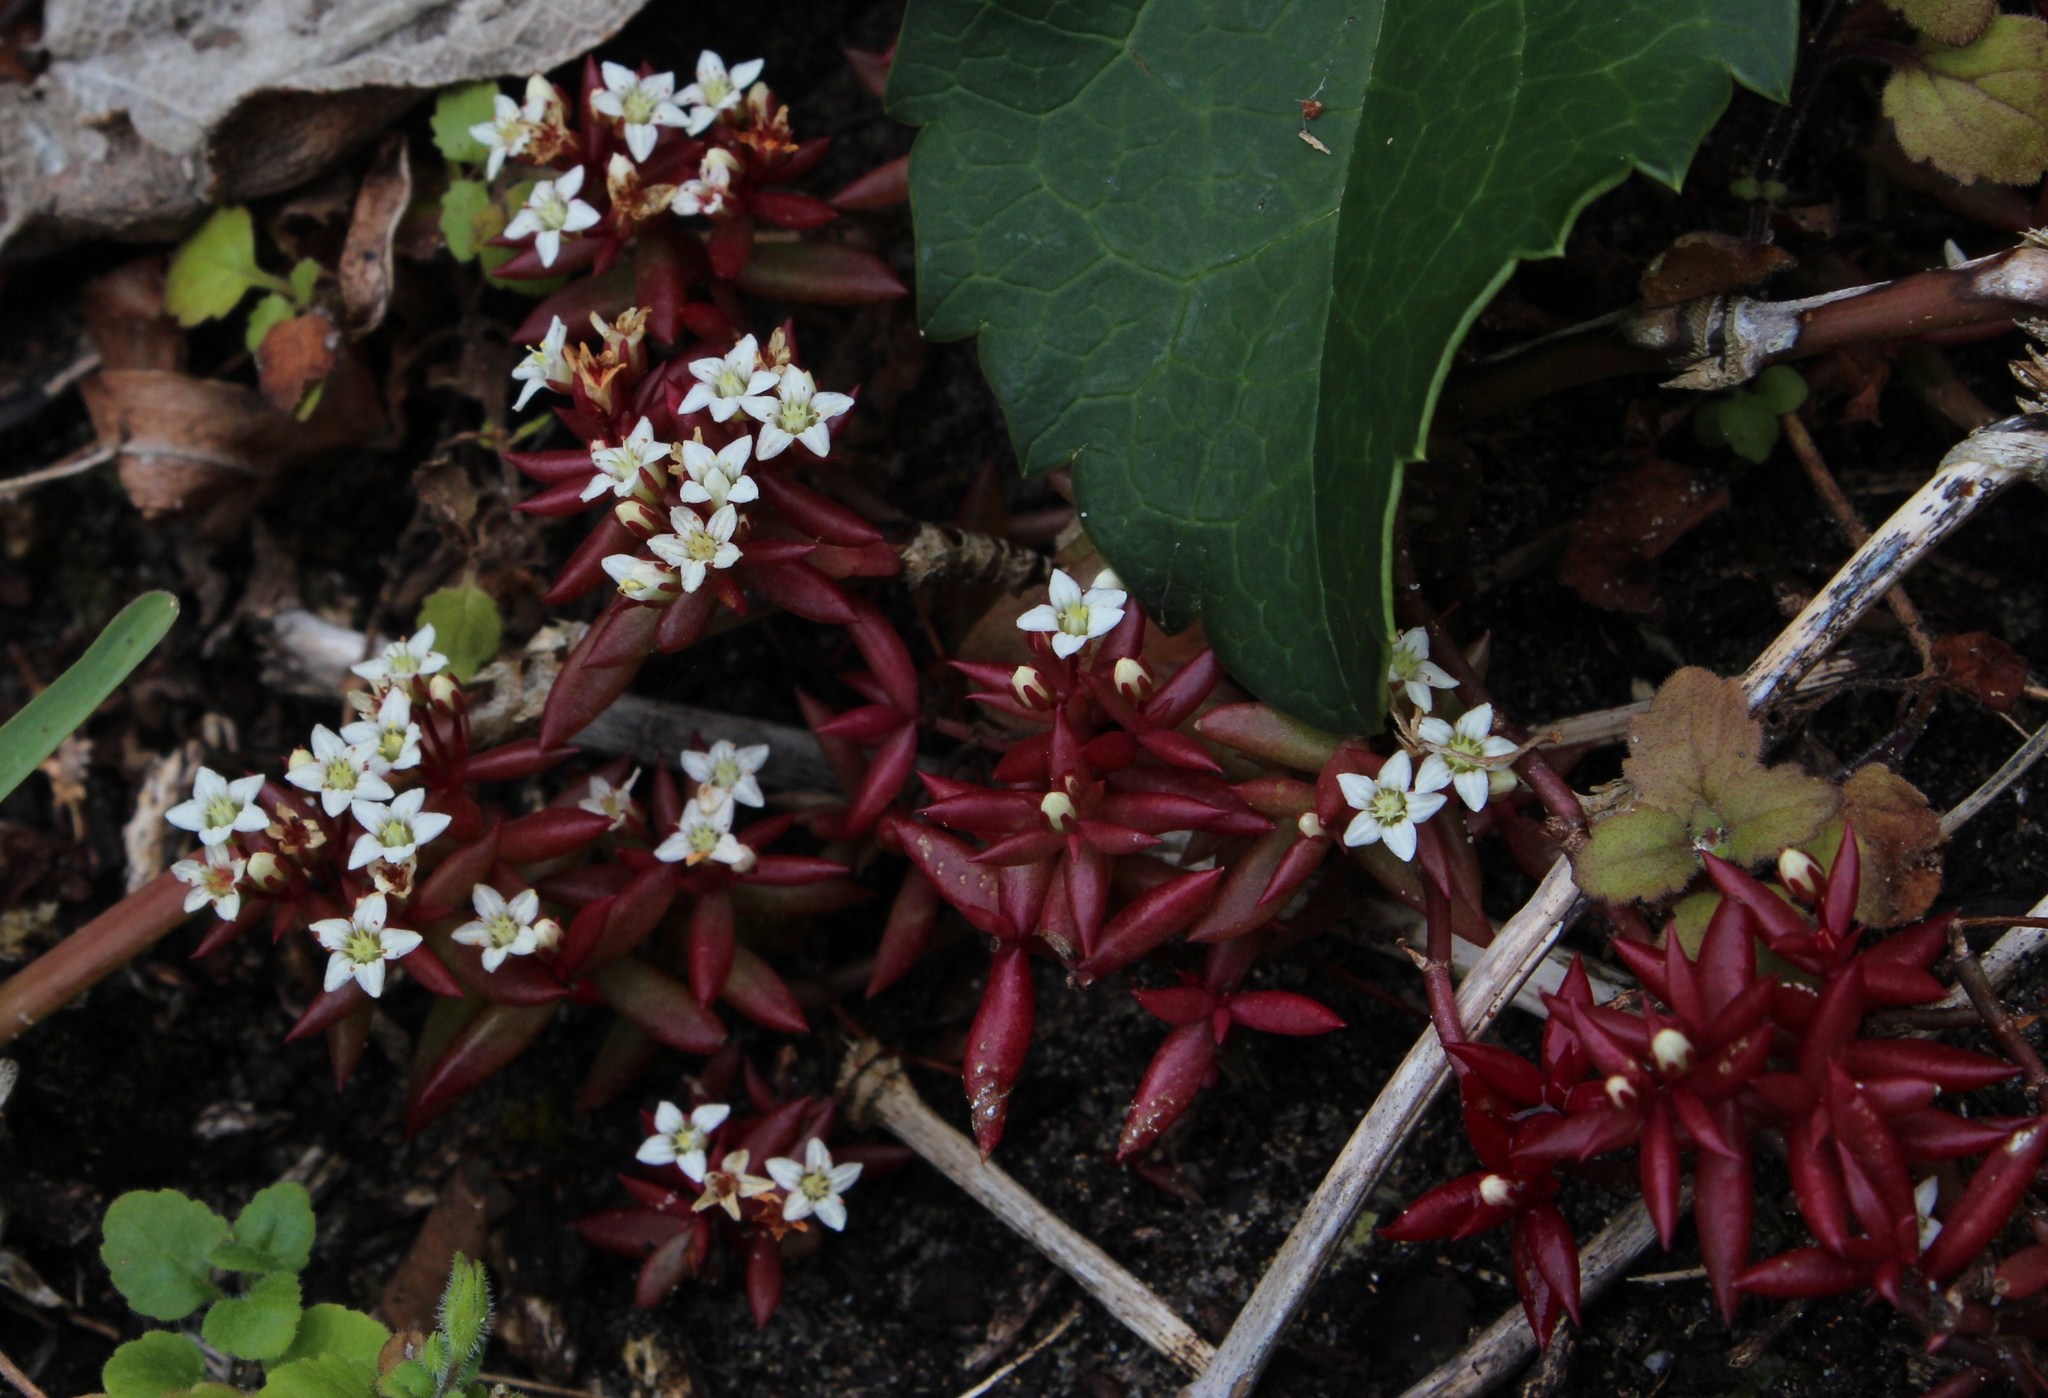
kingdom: Plantae
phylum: Tracheophyta
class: Magnoliopsida
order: Saxifragales
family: Crassulaceae
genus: Crassula
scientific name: Crassula expansa
